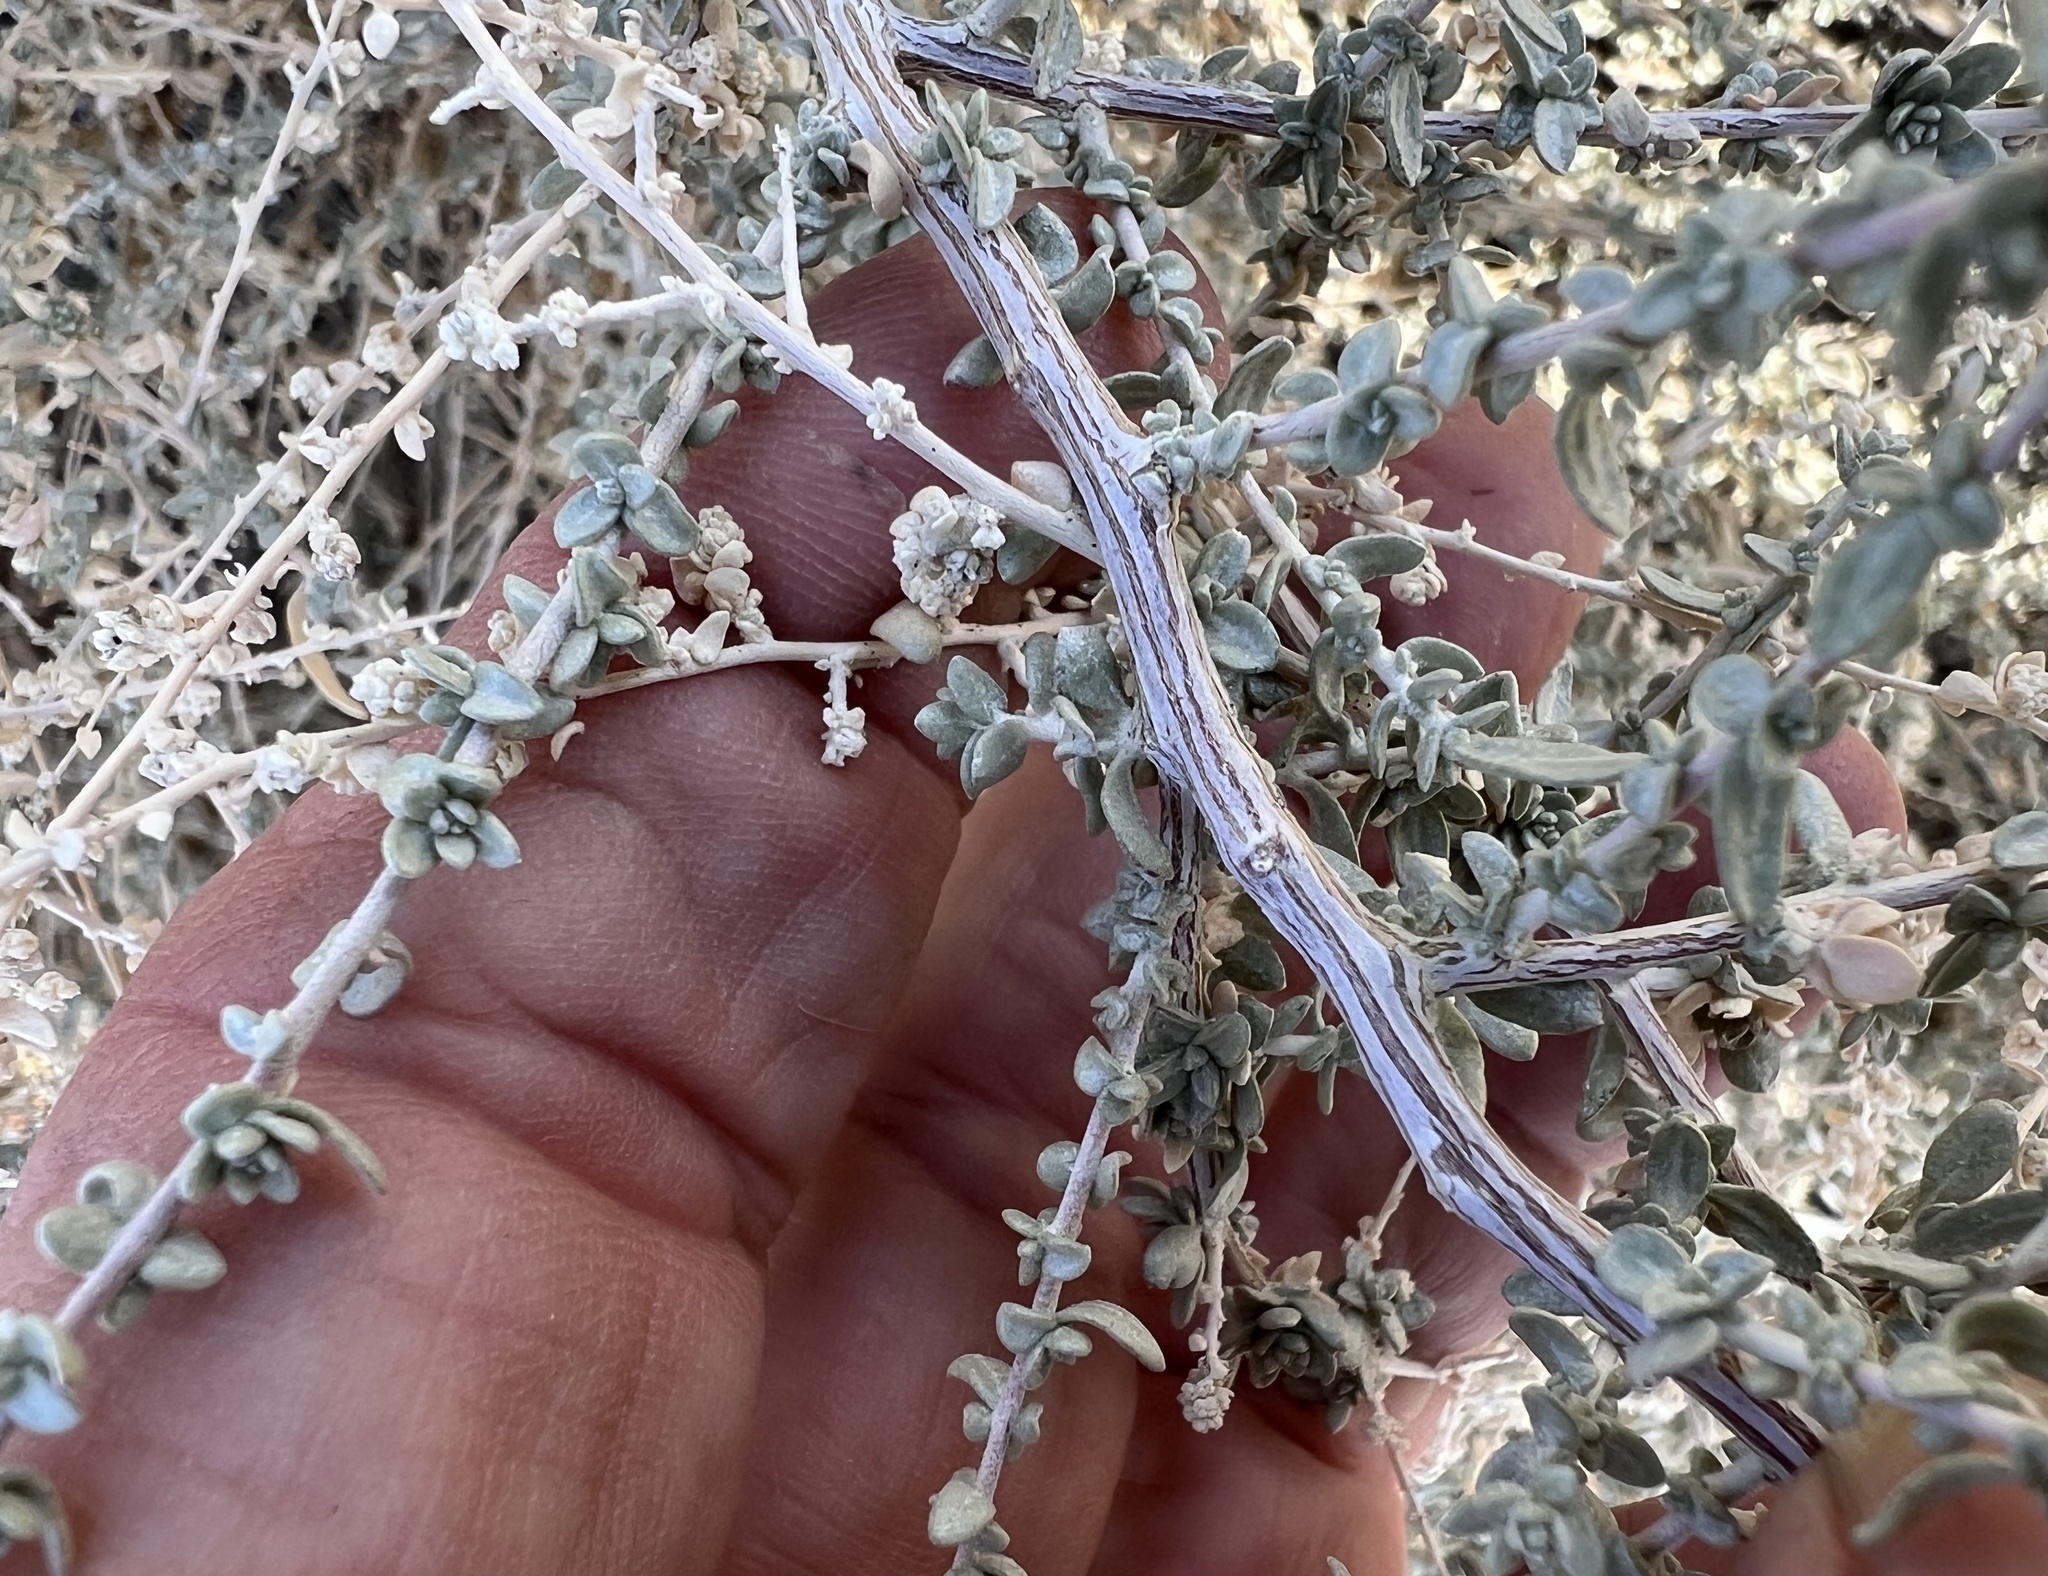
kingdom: Plantae
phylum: Tracheophyta
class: Magnoliopsida
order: Caryophyllales
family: Amaranthaceae
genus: Atriplex
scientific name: Atriplex polycarpa
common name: Desert saltbush
